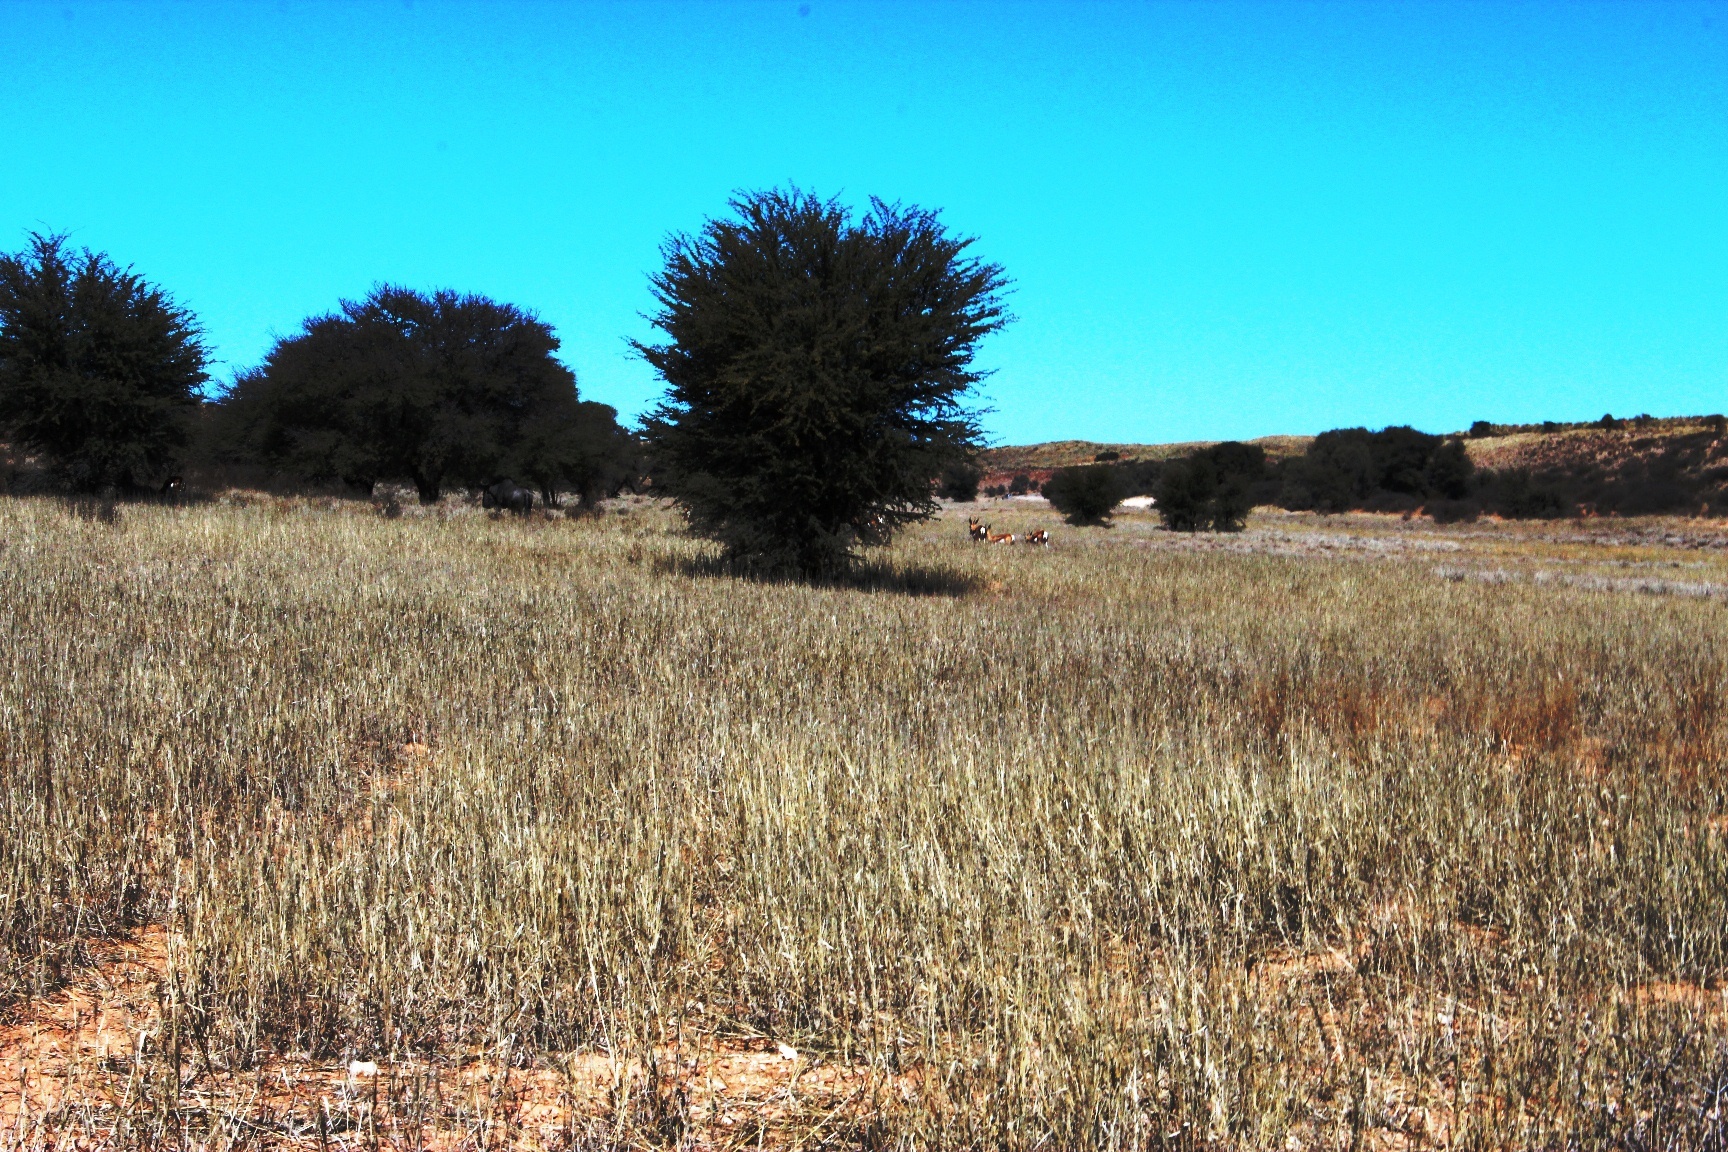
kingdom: Plantae
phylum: Tracheophyta
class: Magnoliopsida
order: Fabales
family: Fabaceae
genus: Vachellia
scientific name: Vachellia erioloba
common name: Camel thorn
